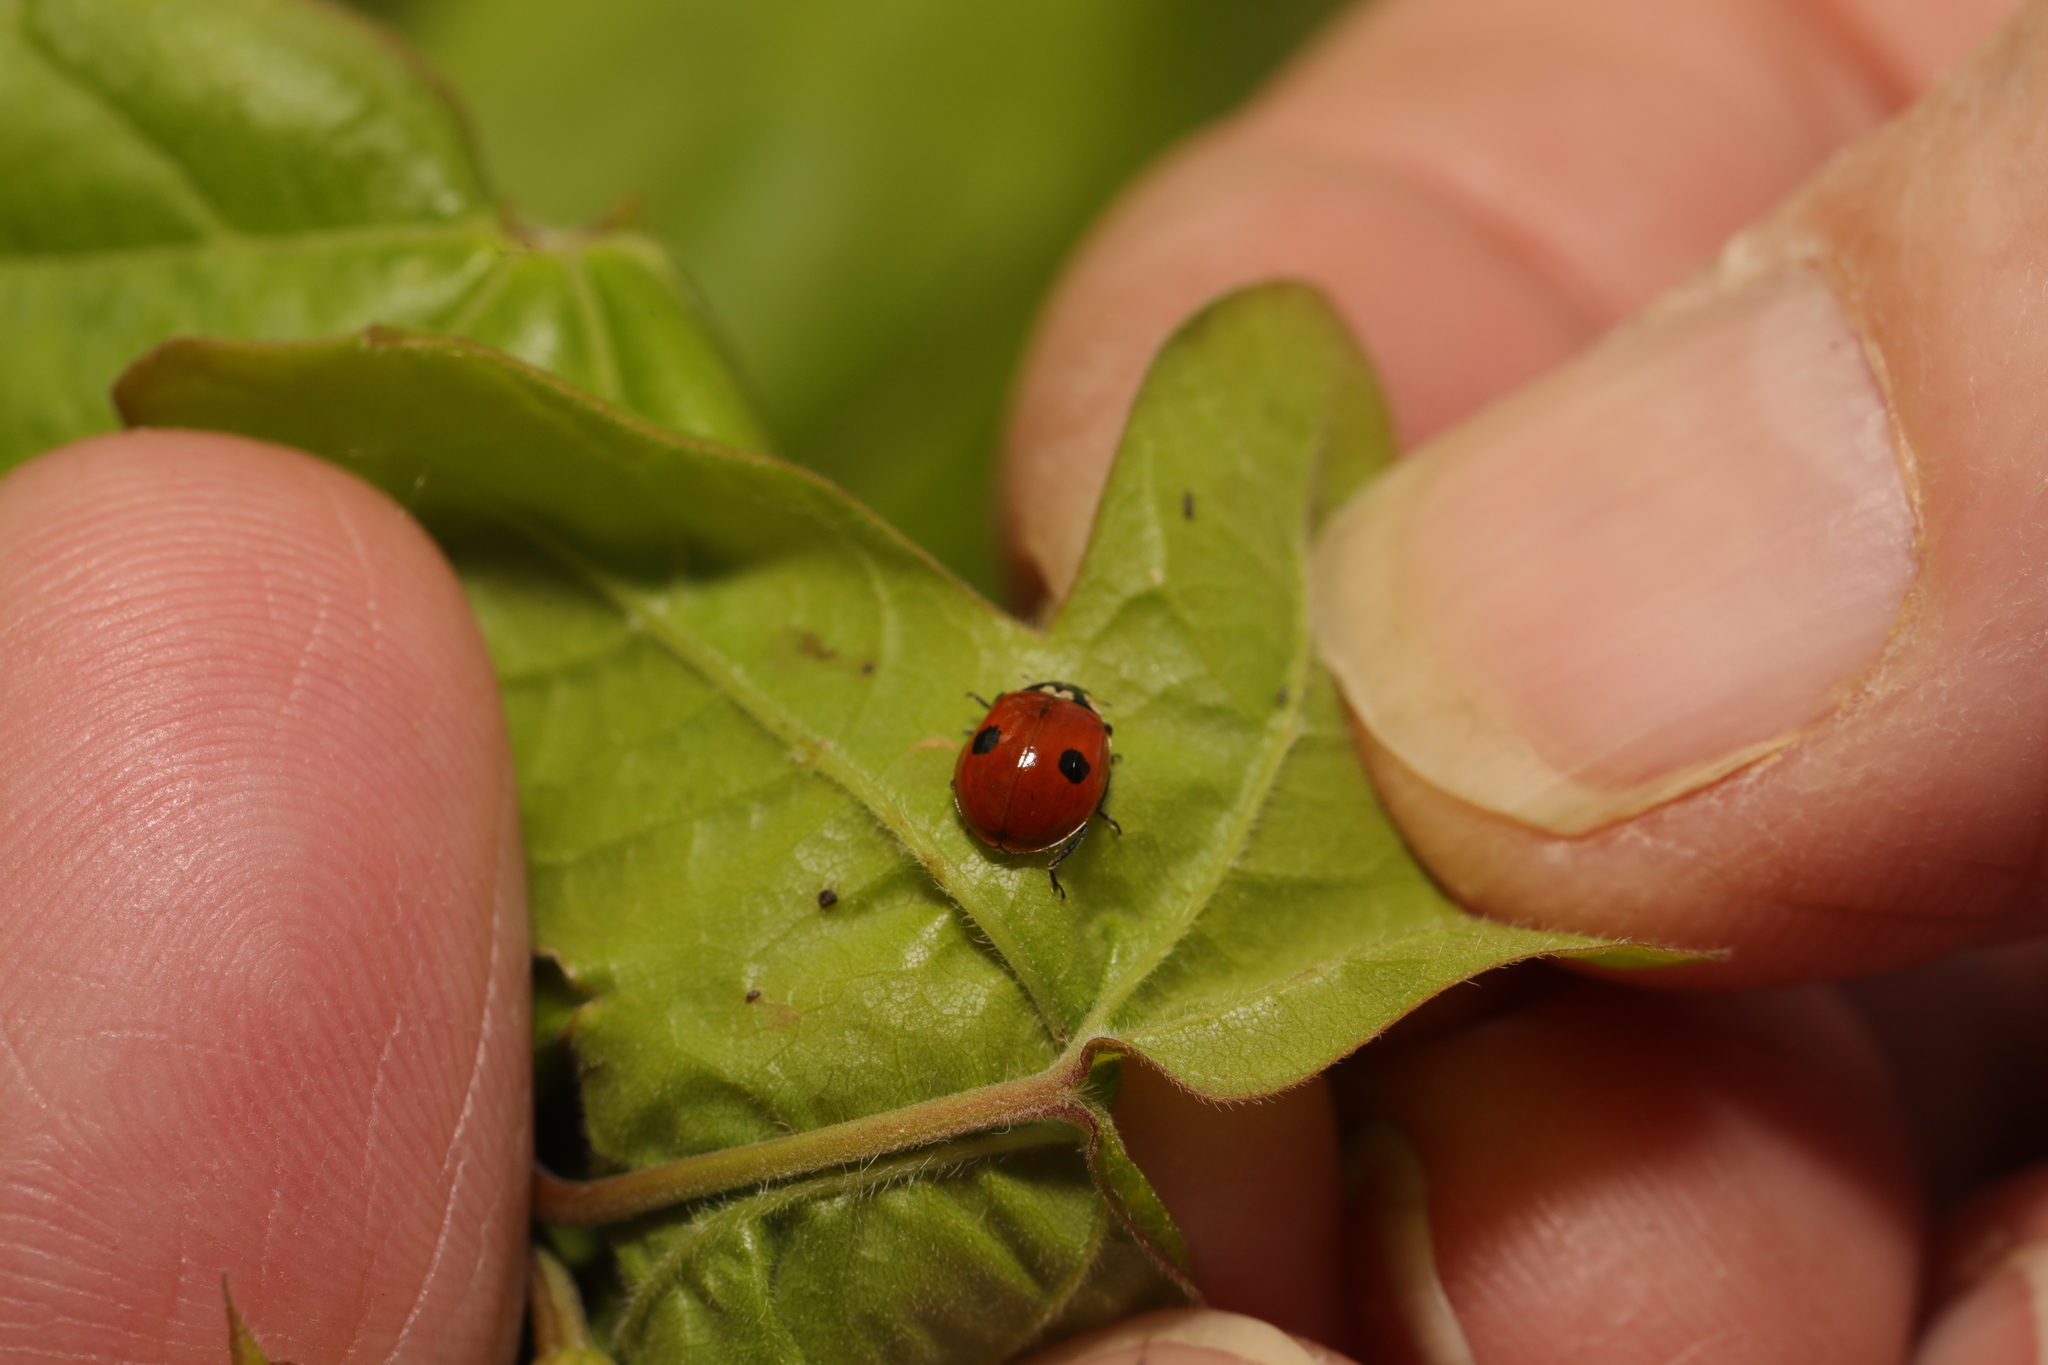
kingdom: Animalia
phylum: Arthropoda
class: Insecta
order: Coleoptera
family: Coccinellidae
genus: Adalia
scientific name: Adalia bipunctata
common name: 2-spot ladybird
